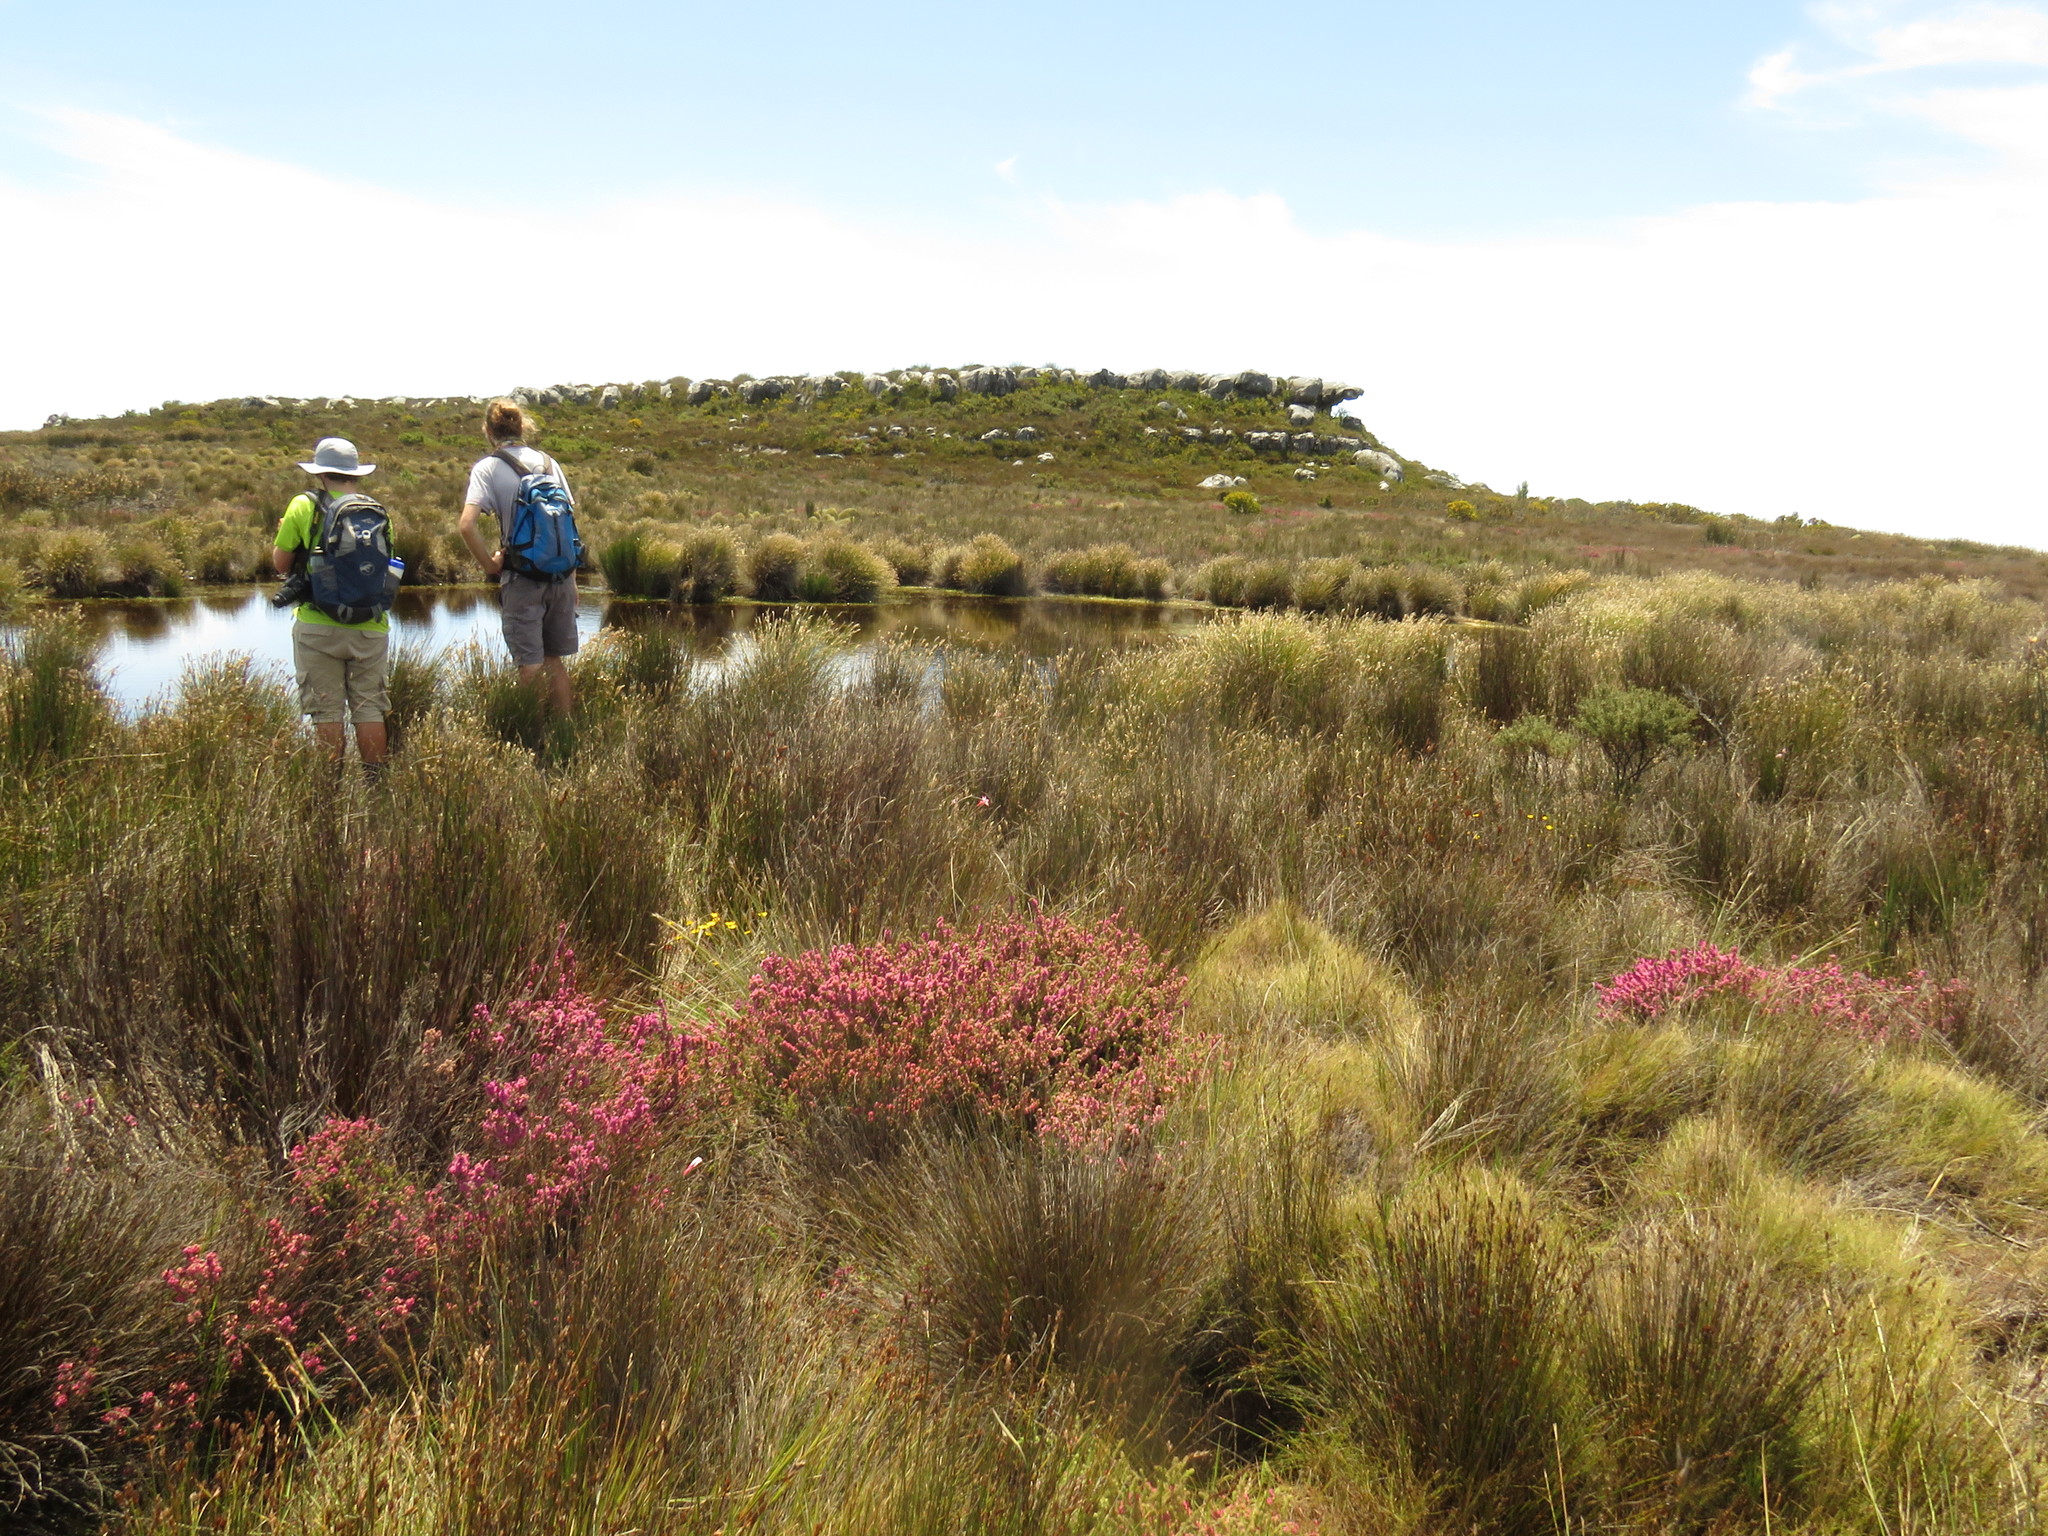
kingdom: Plantae
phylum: Tracheophyta
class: Magnoliopsida
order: Ericales
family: Ericaceae
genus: Erica
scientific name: Erica mollis
